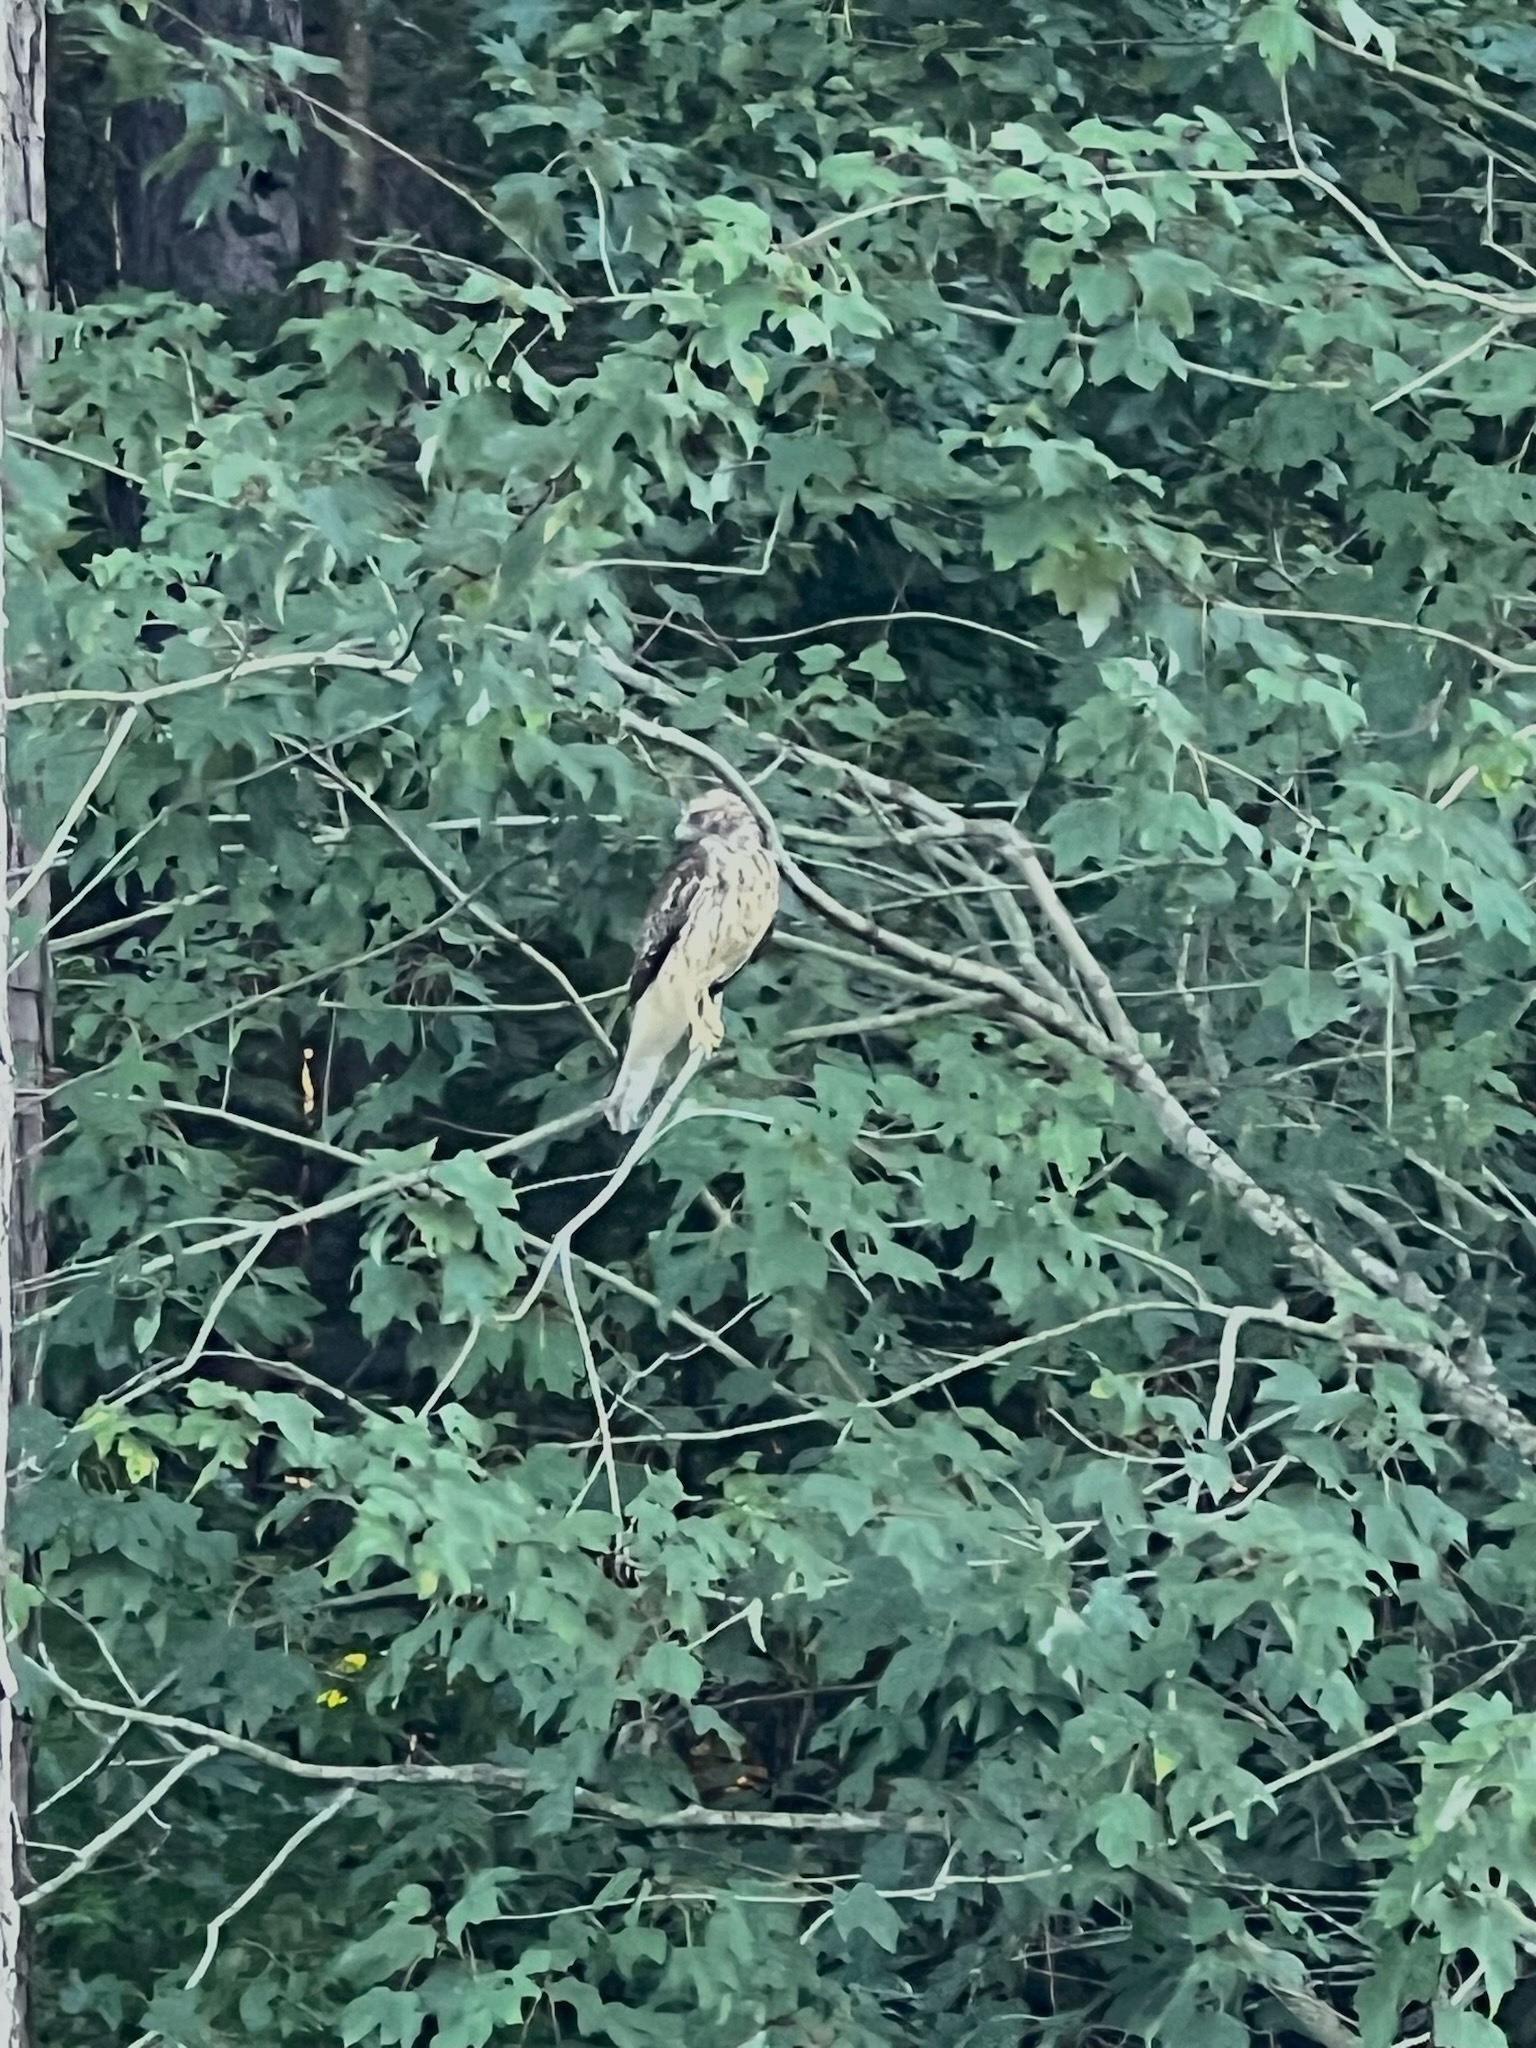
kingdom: Animalia
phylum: Chordata
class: Aves
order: Accipitriformes
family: Accipitridae
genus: Buteo
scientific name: Buteo lineatus
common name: Red-shouldered hawk
